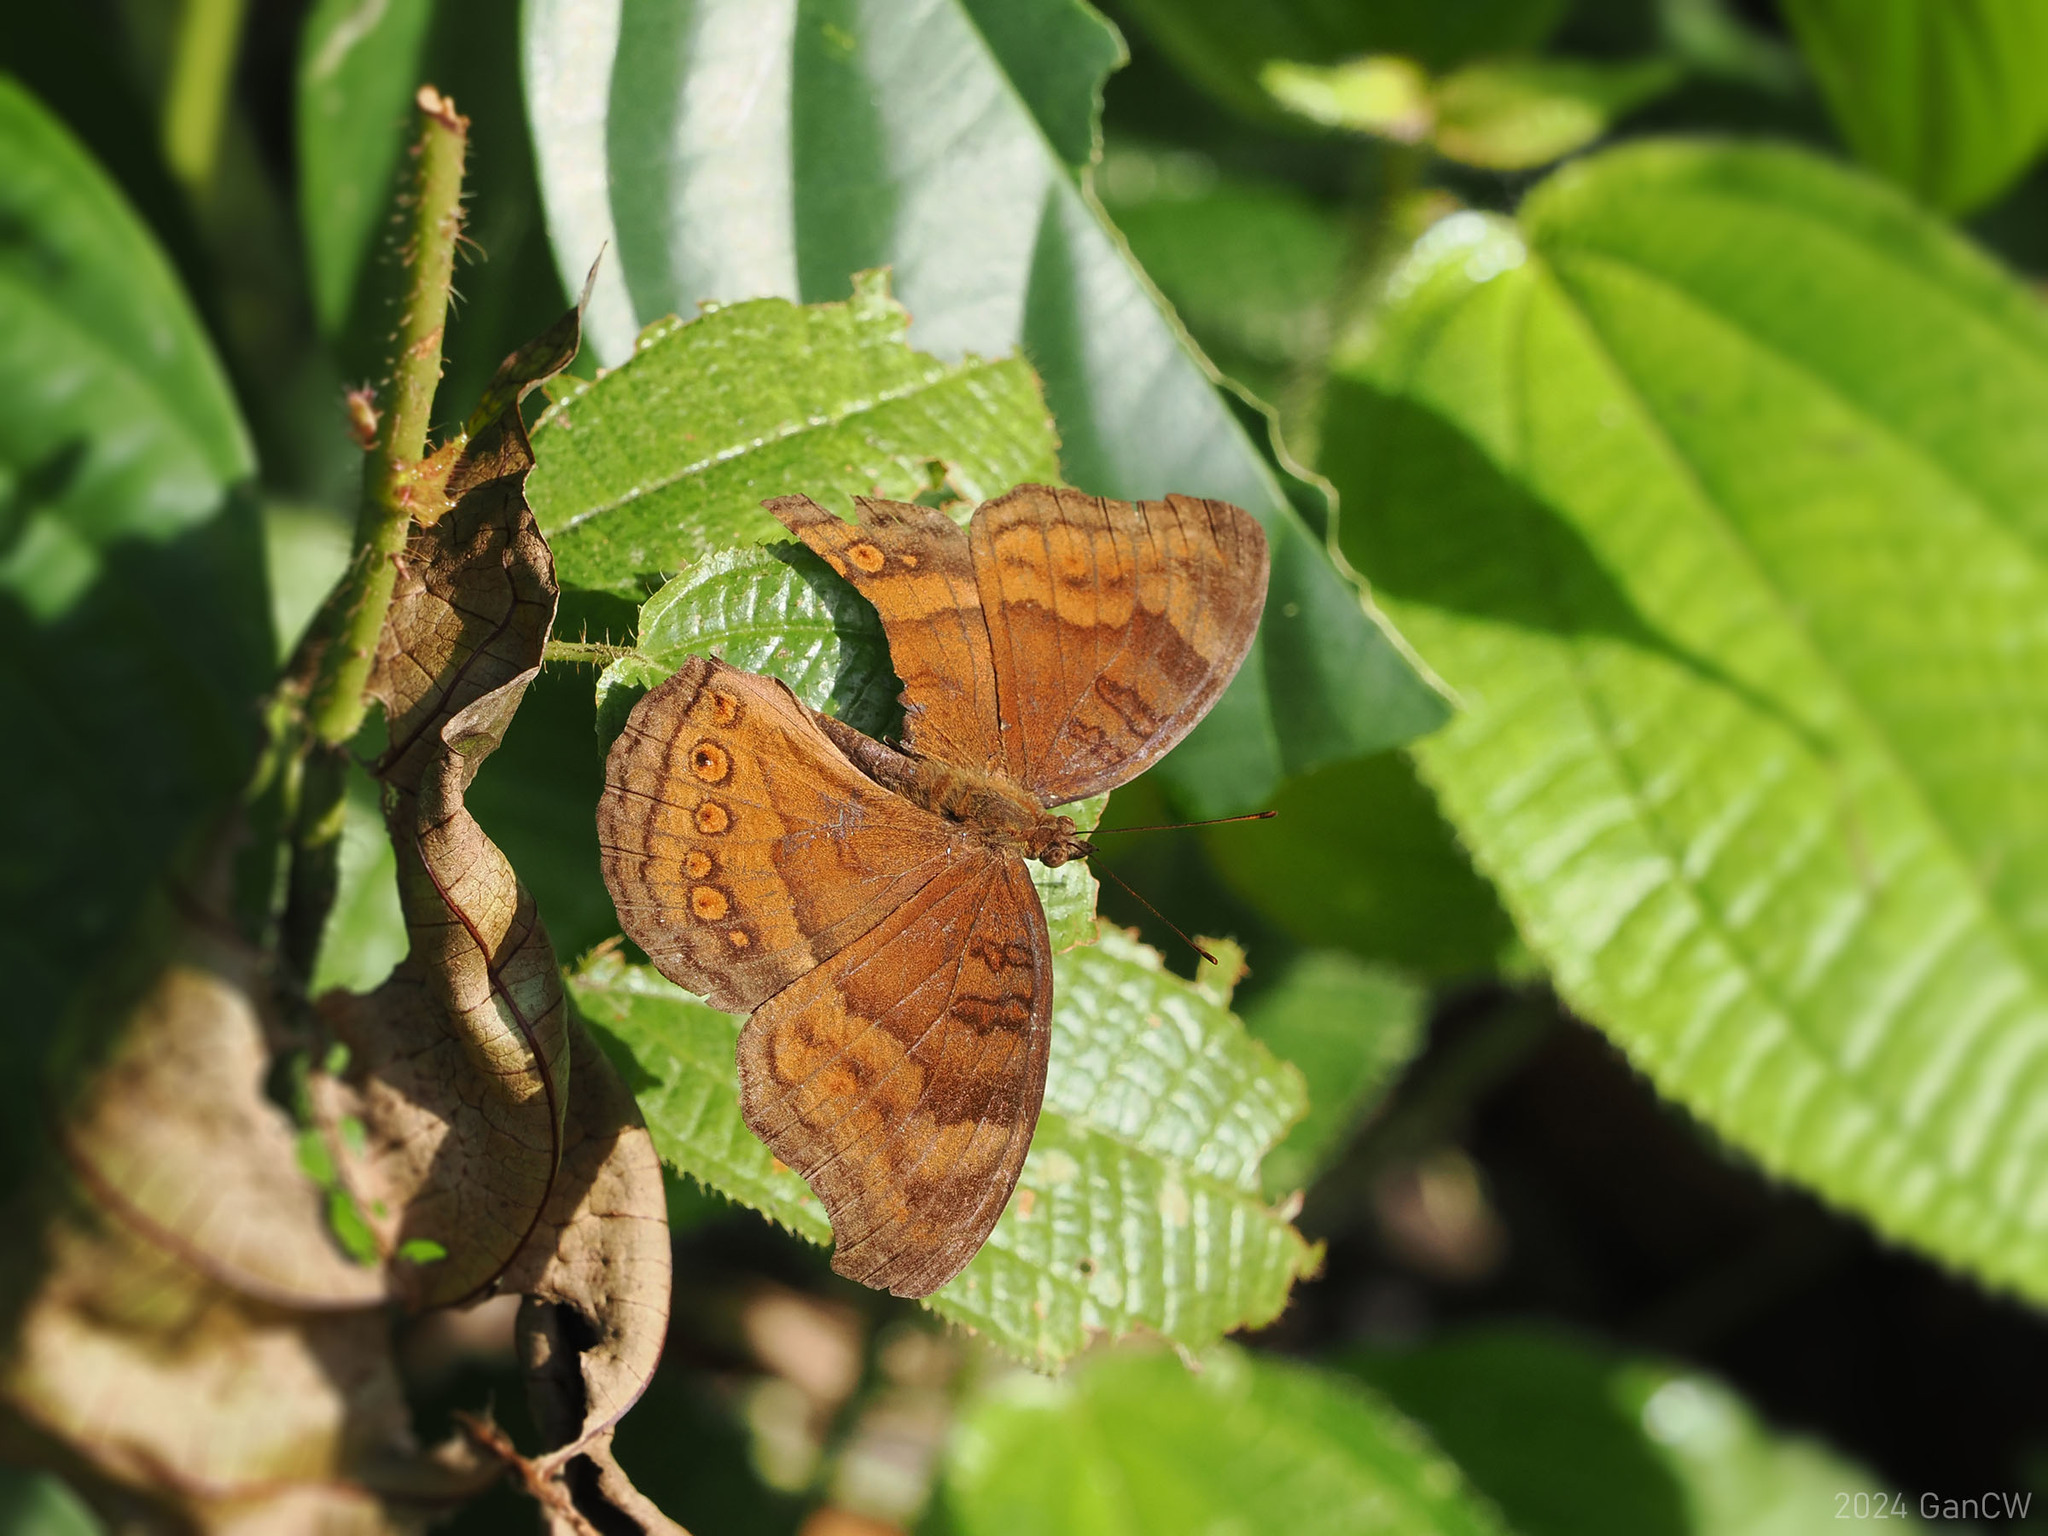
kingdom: Animalia
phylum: Arthropoda
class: Insecta
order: Lepidoptera
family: Nymphalidae
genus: Junonia
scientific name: Junonia hedonia
